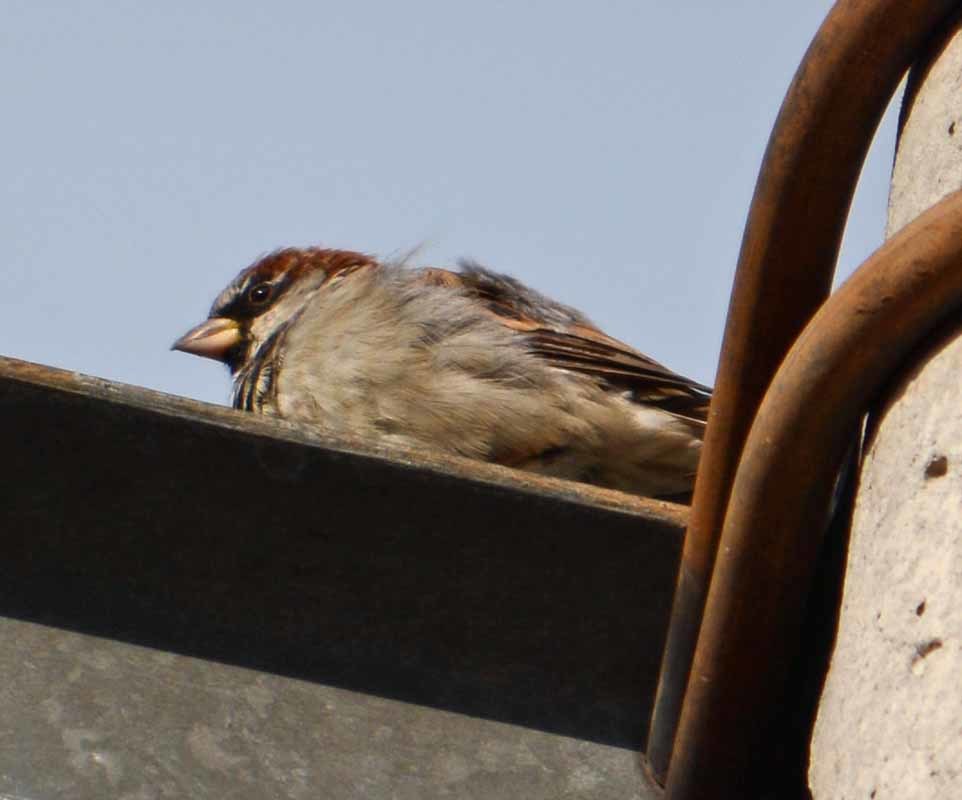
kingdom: Animalia
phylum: Chordata
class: Aves
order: Passeriformes
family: Passeridae
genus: Passer
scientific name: Passer domesticus
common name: House sparrow
